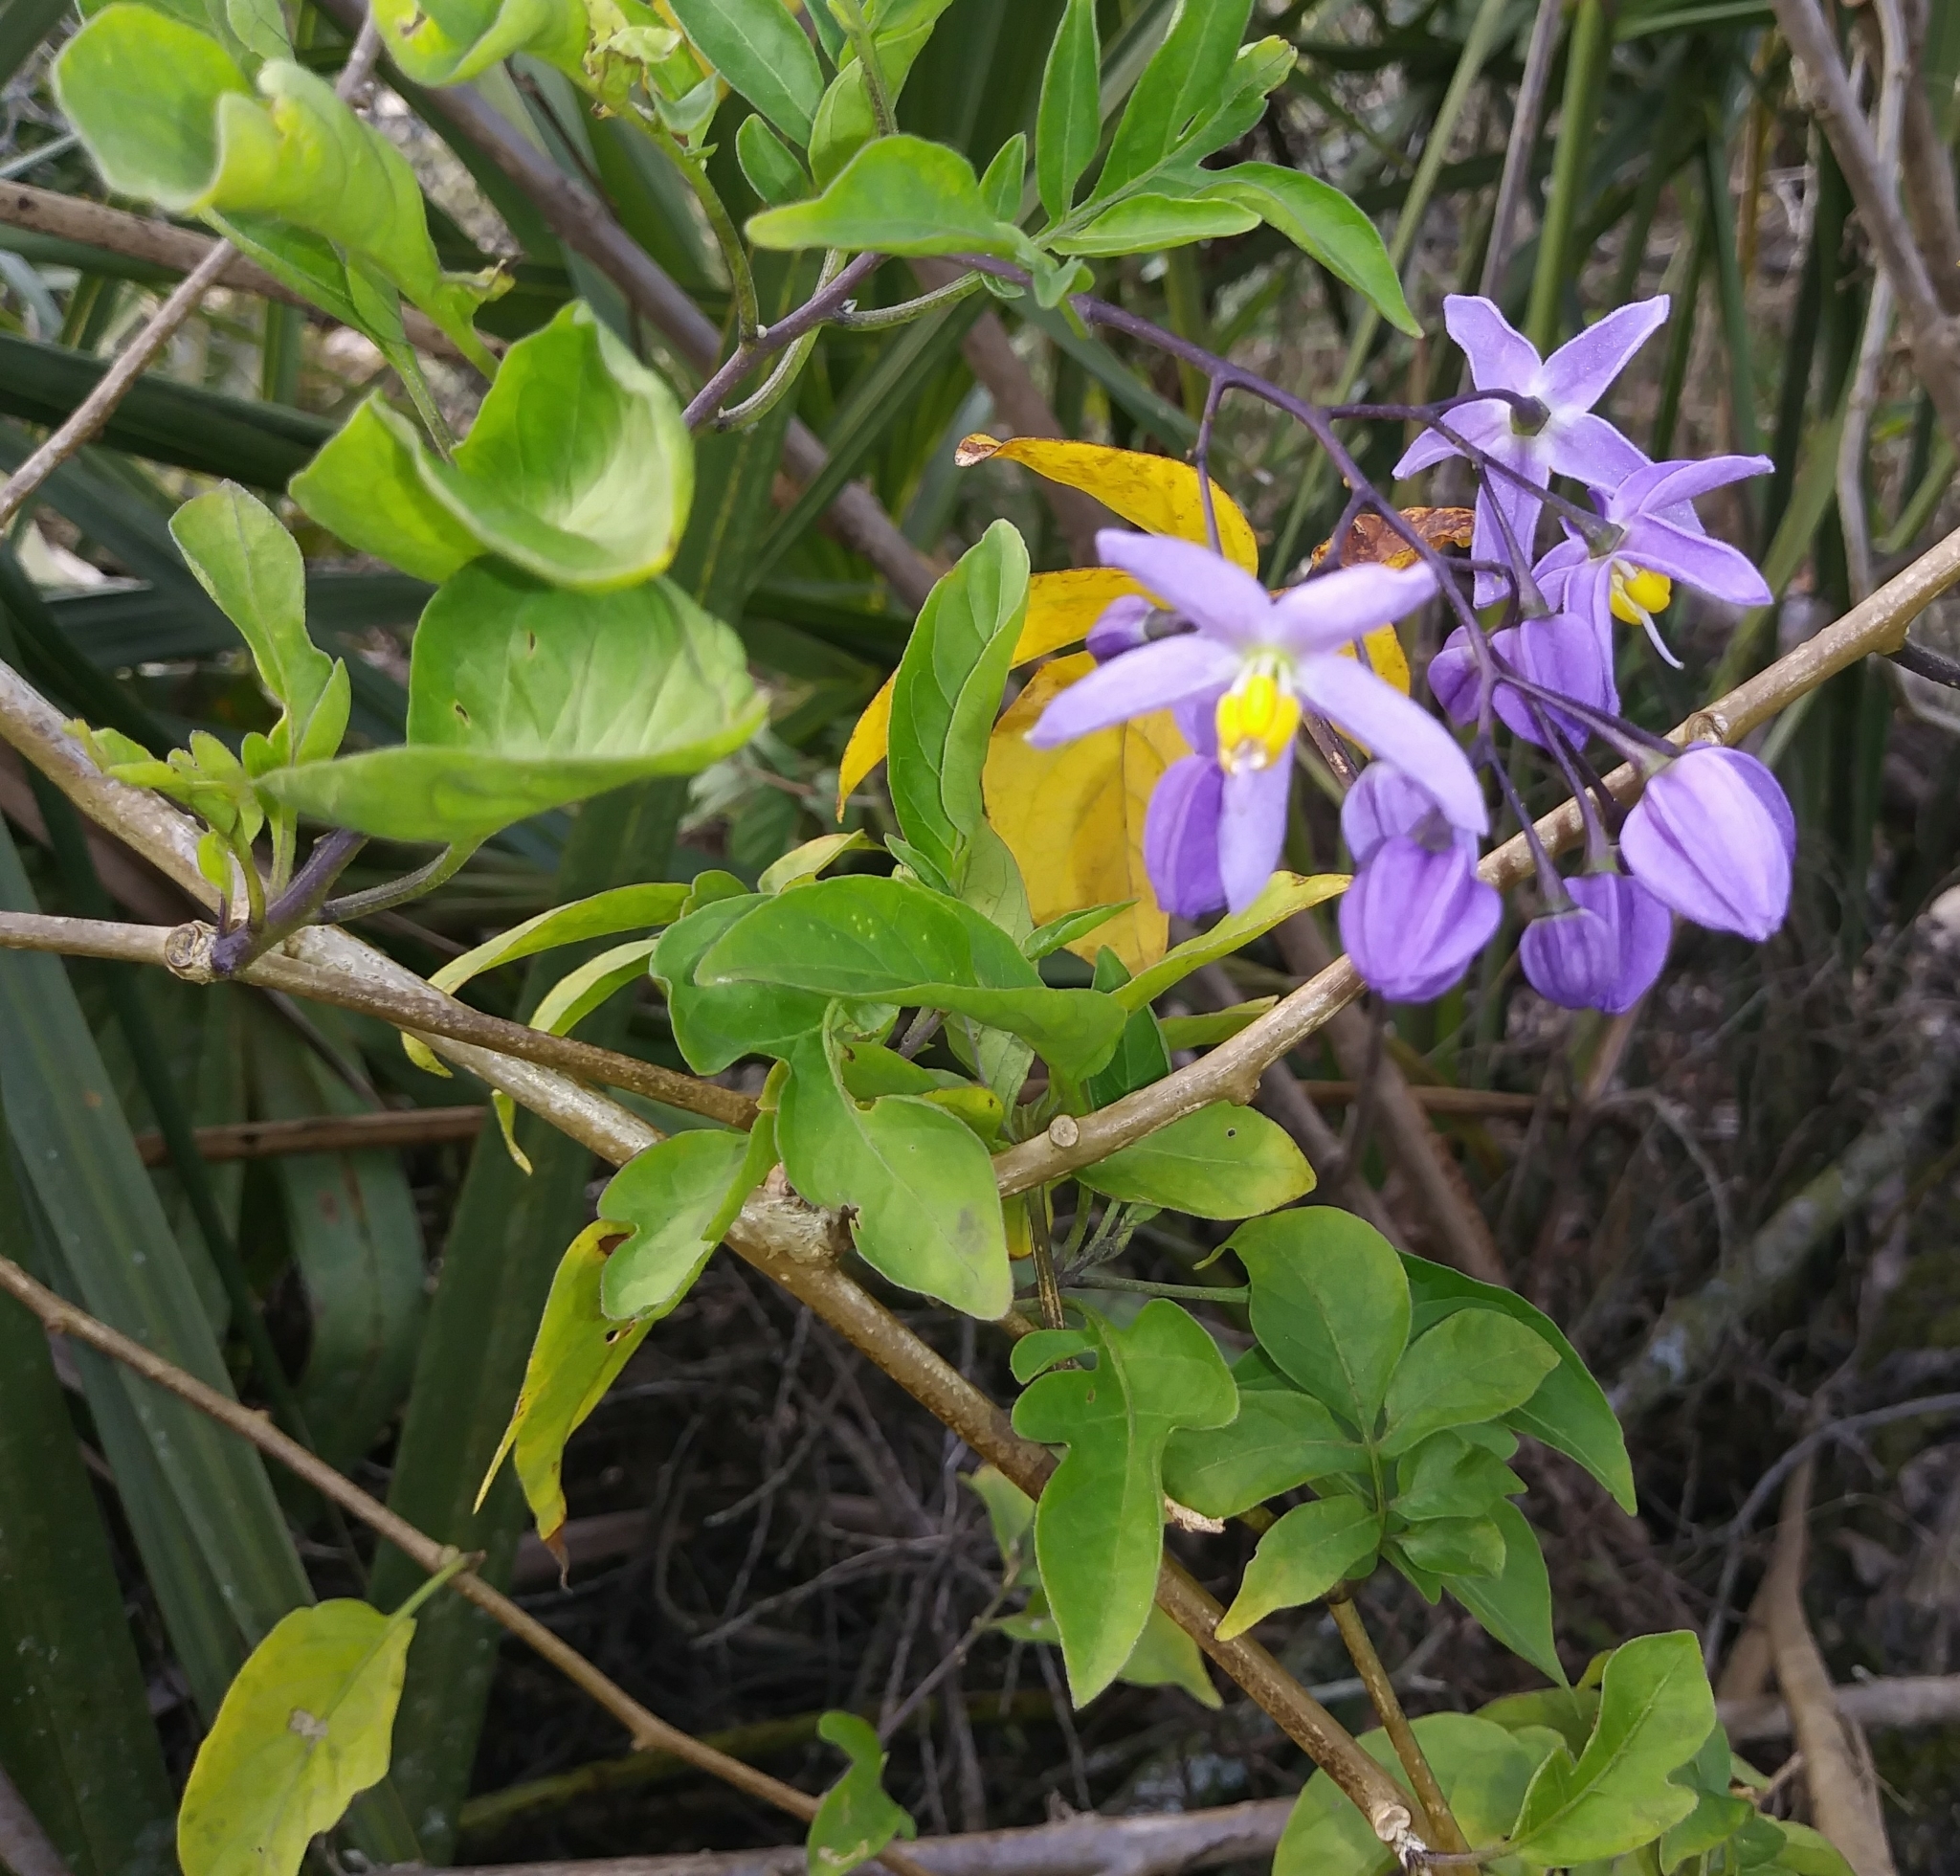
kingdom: Plantae
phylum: Tracheophyta
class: Magnoliopsida
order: Solanales
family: Solanaceae
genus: Solanum
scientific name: Solanum seaforthianum
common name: Brazilian nightshade
